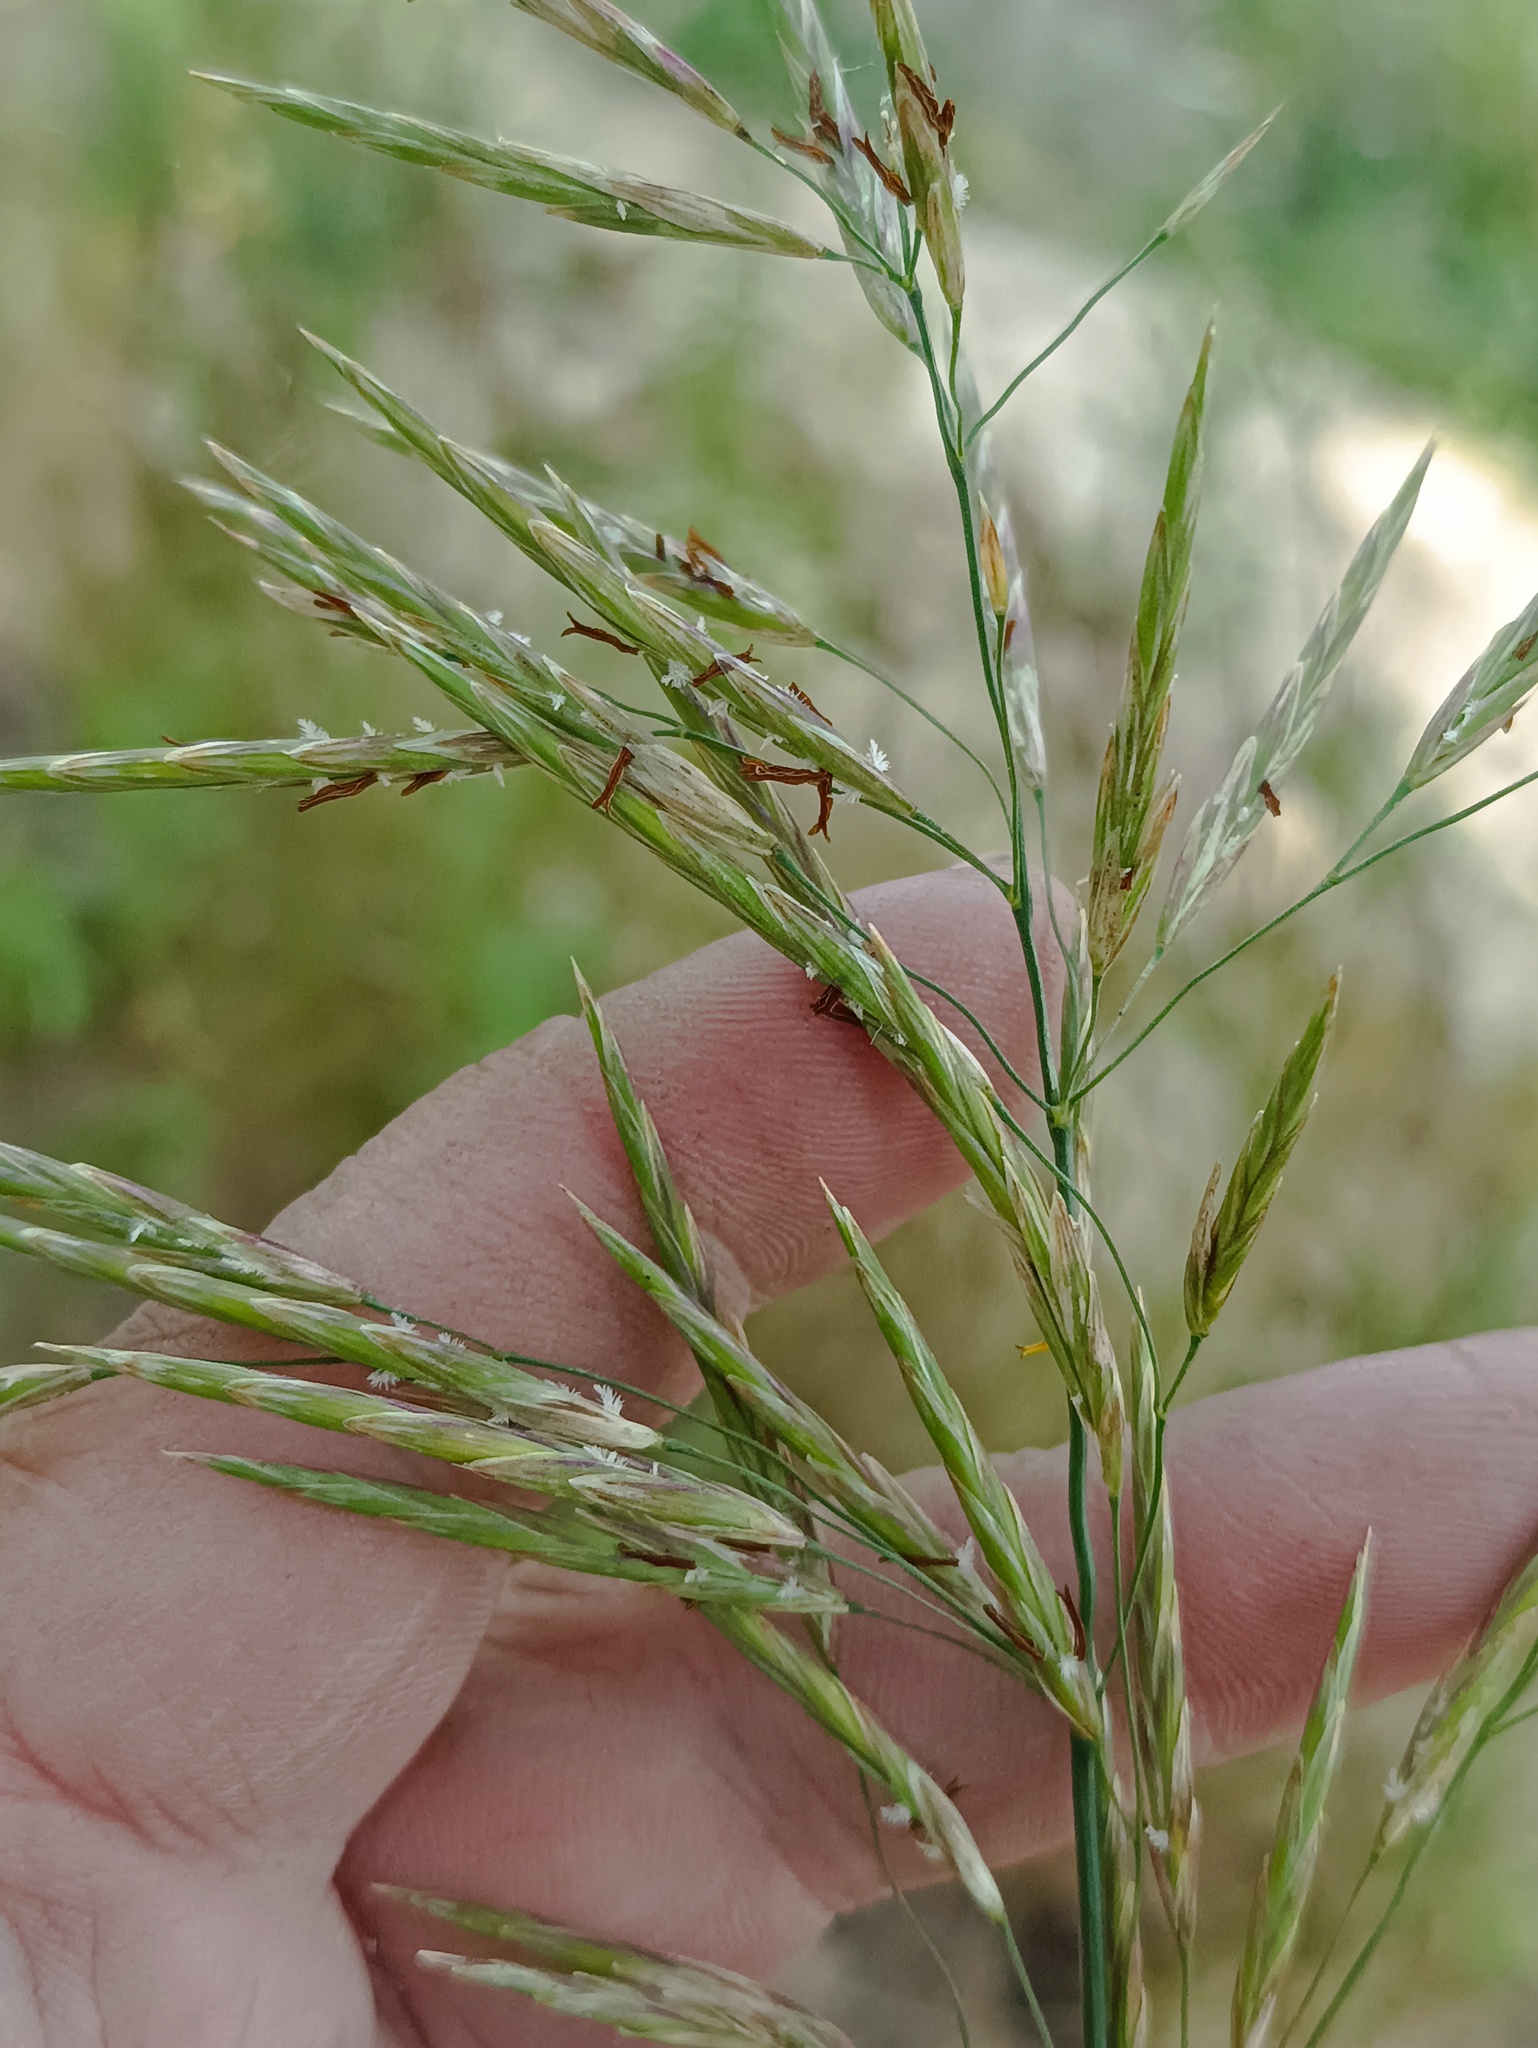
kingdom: Plantae
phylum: Tracheophyta
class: Liliopsida
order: Poales
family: Poaceae
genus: Bromus
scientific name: Bromus inermis
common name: Smooth brome
